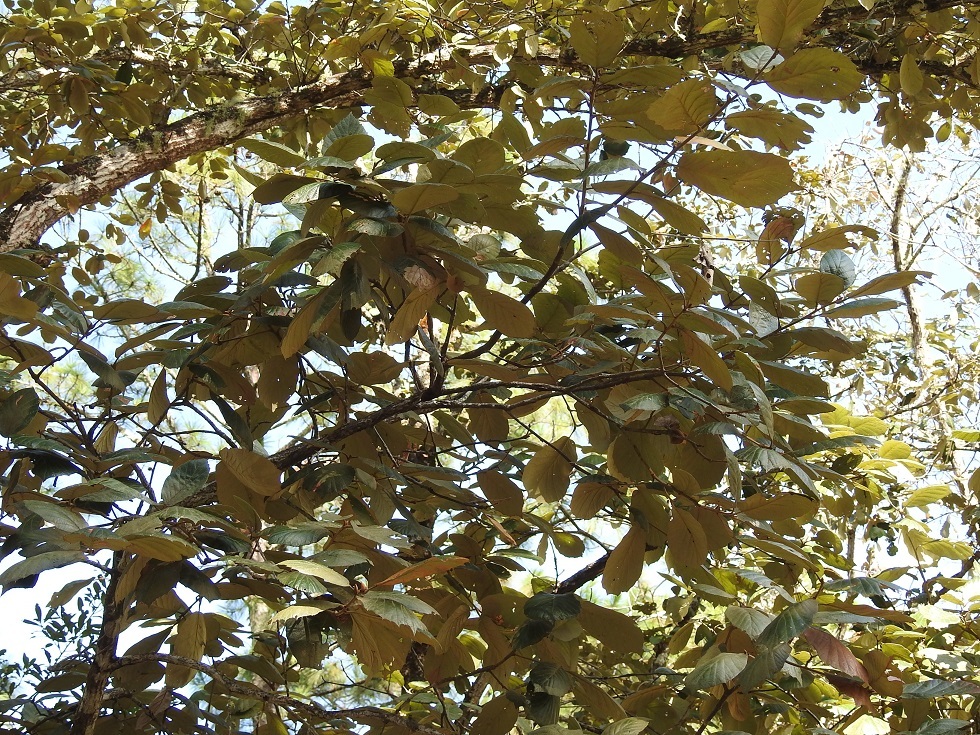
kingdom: Plantae
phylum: Tracheophyta
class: Magnoliopsida
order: Fagales
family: Fagaceae
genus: Quercus
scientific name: Quercus calophylla
